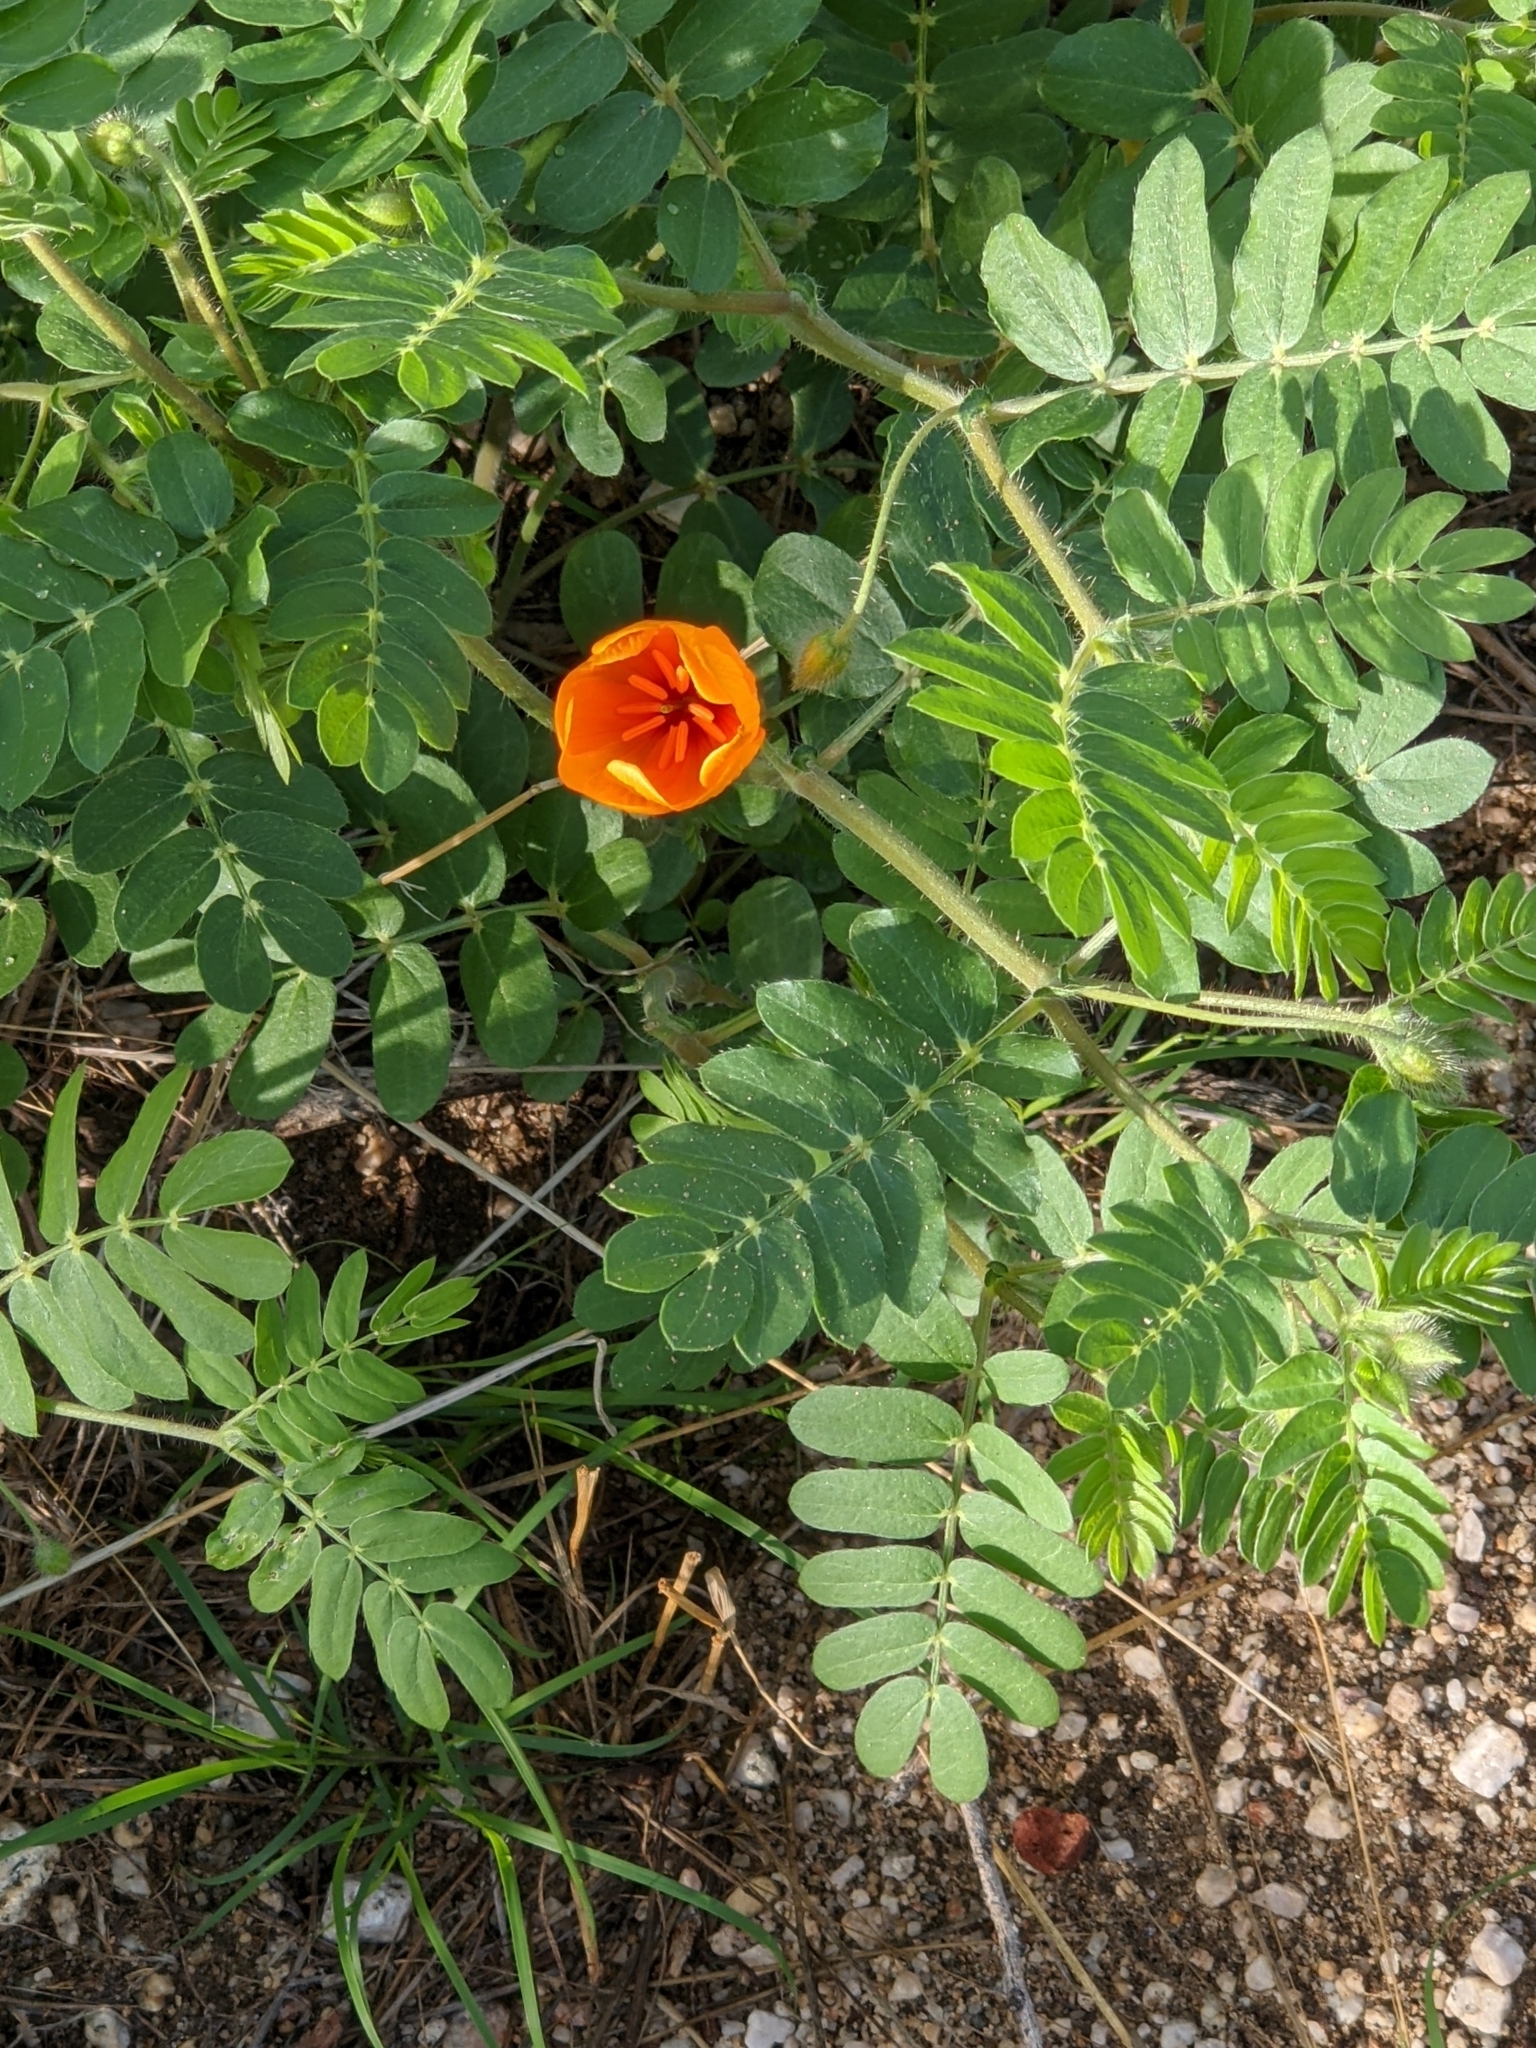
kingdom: Plantae
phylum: Tracheophyta
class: Magnoliopsida
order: Zygophyllales
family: Zygophyllaceae
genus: Kallstroemia
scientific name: Kallstroemia grandiflora
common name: Arizona-poppy
